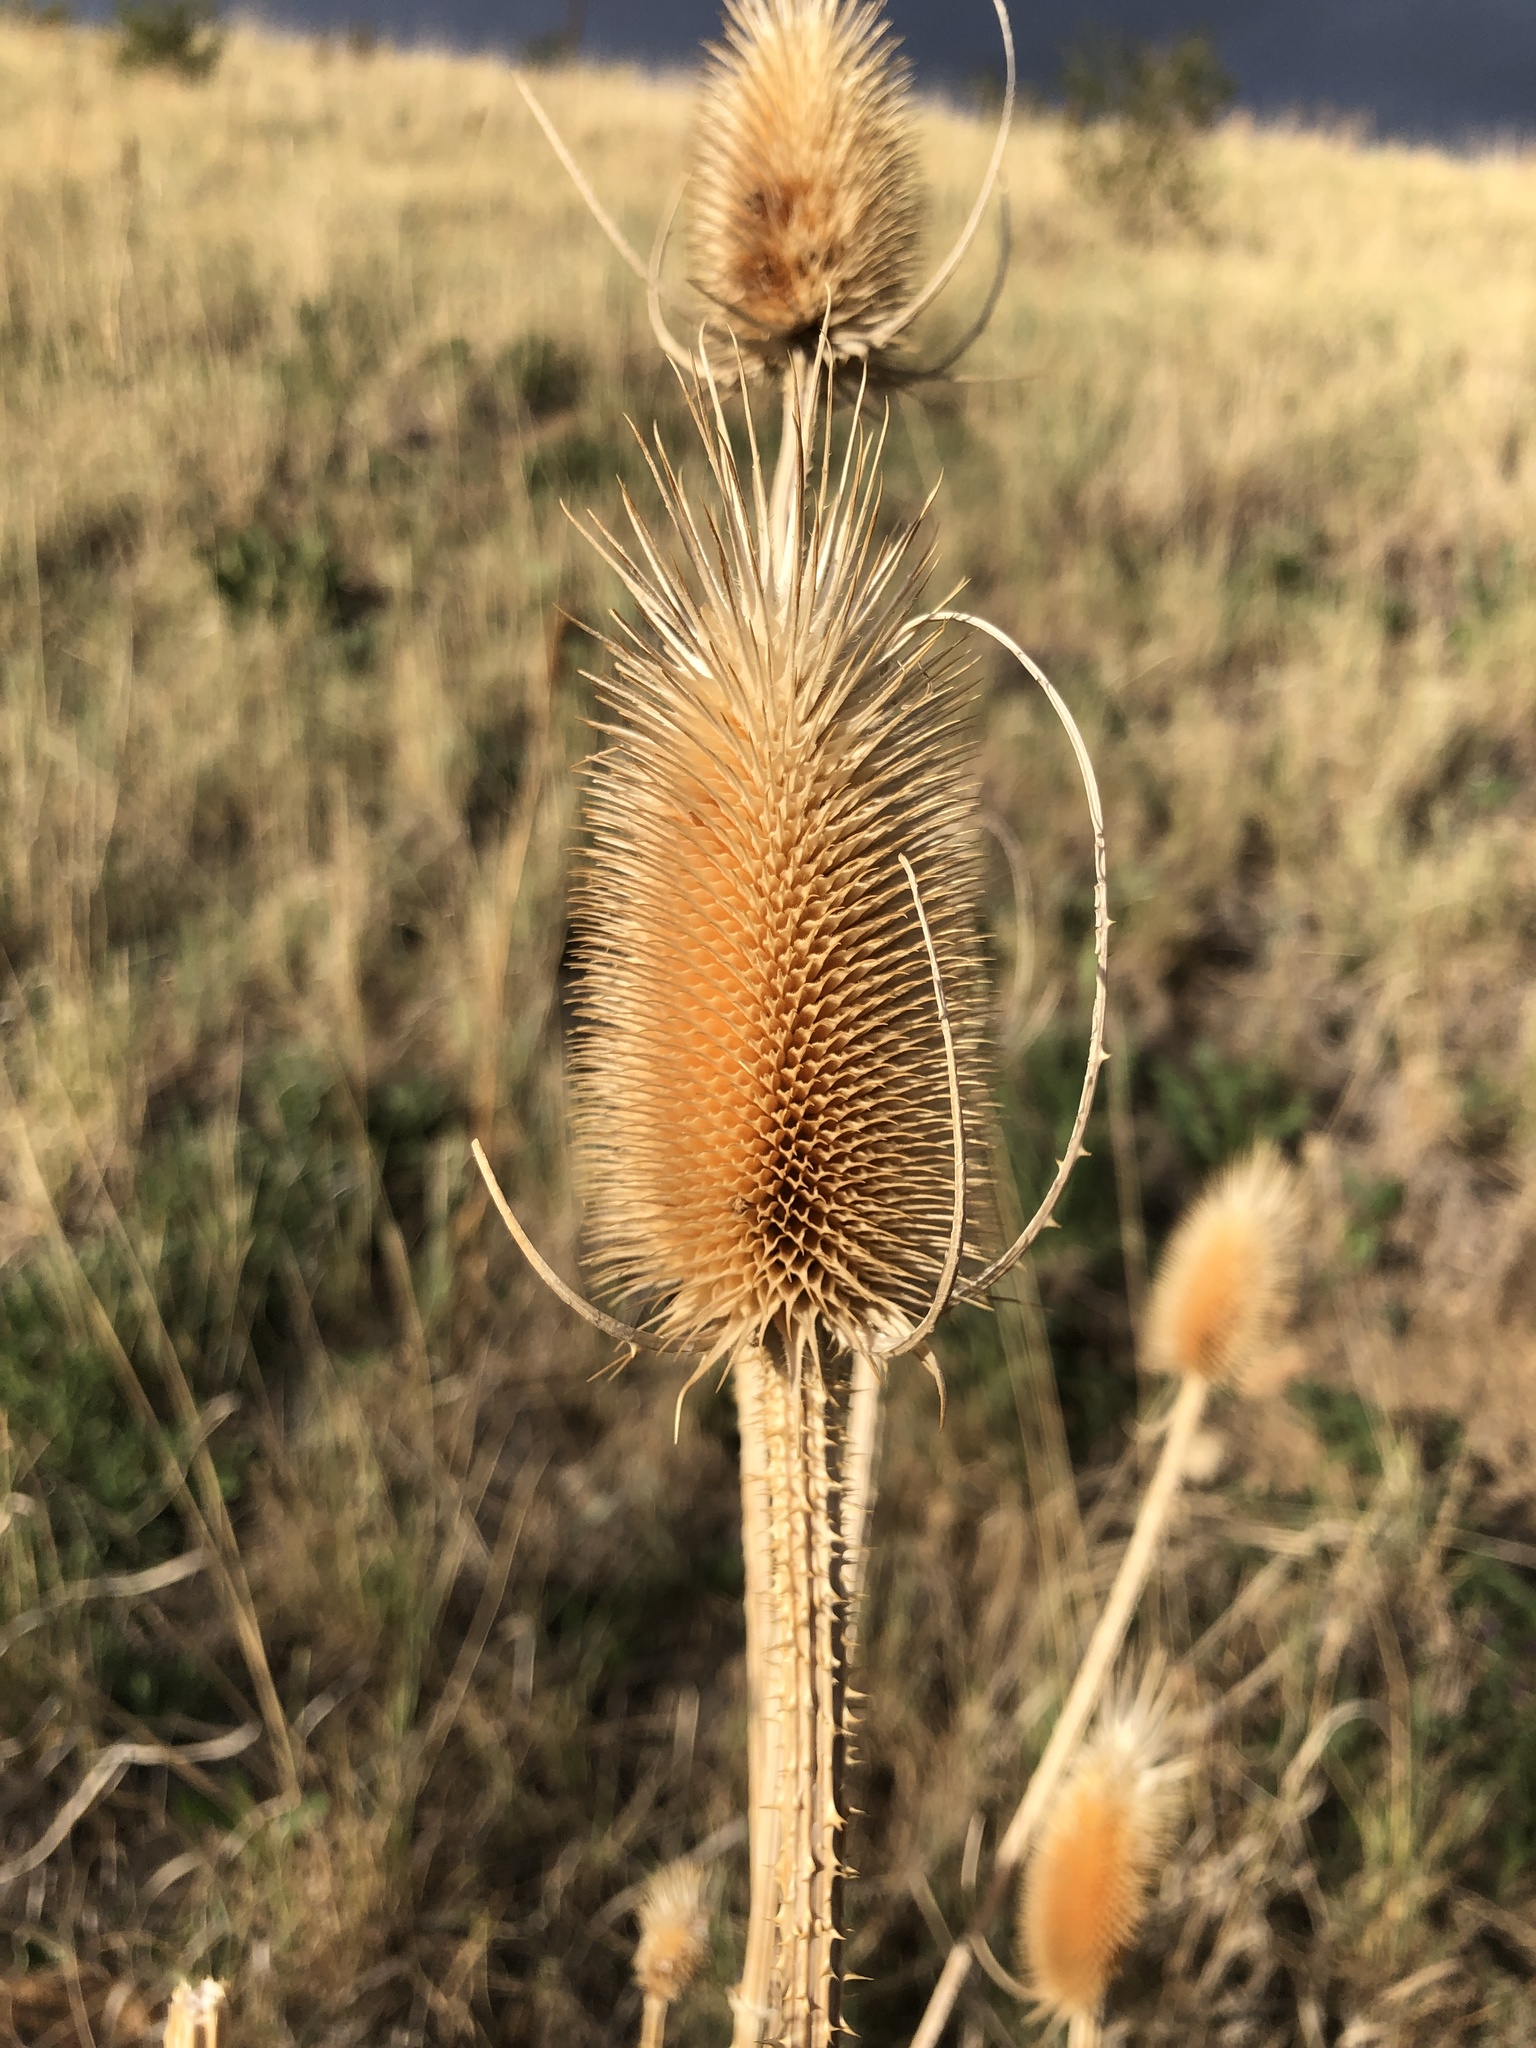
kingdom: Plantae
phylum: Tracheophyta
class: Magnoliopsida
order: Dipsacales
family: Caprifoliaceae
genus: Dipsacus
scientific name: Dipsacus fullonum
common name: Teasel
